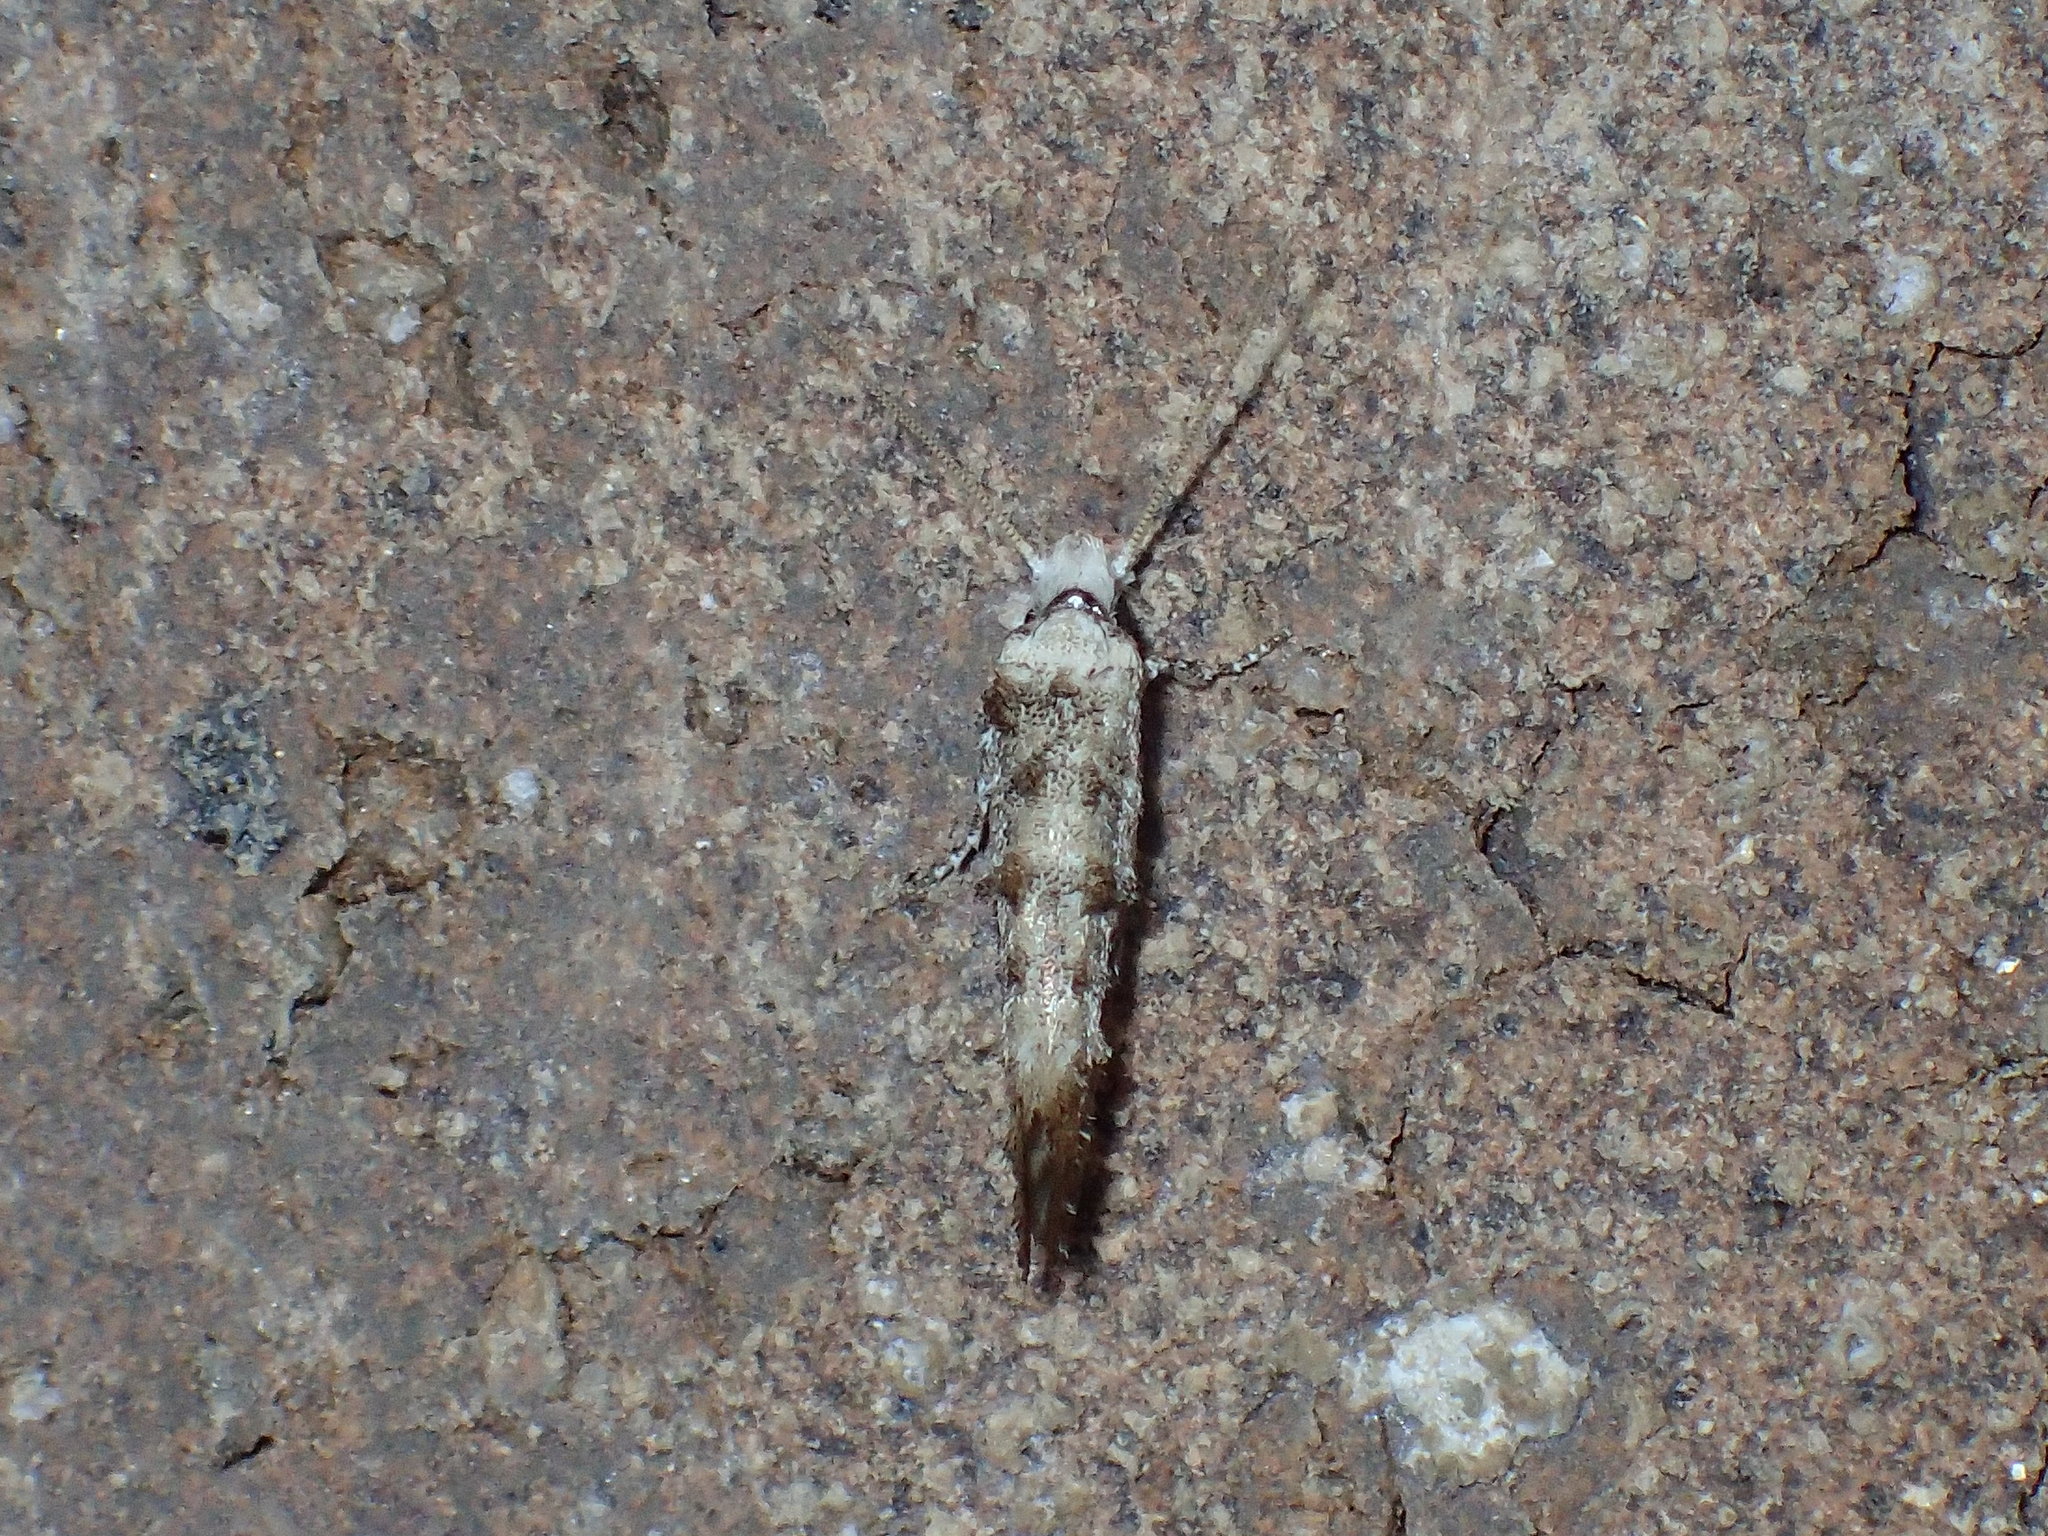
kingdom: Animalia
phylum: Arthropoda
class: Insecta
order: Lepidoptera
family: Tineidae
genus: Xylesthia
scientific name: Xylesthia pruniramiella
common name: Clemens' bark moth
